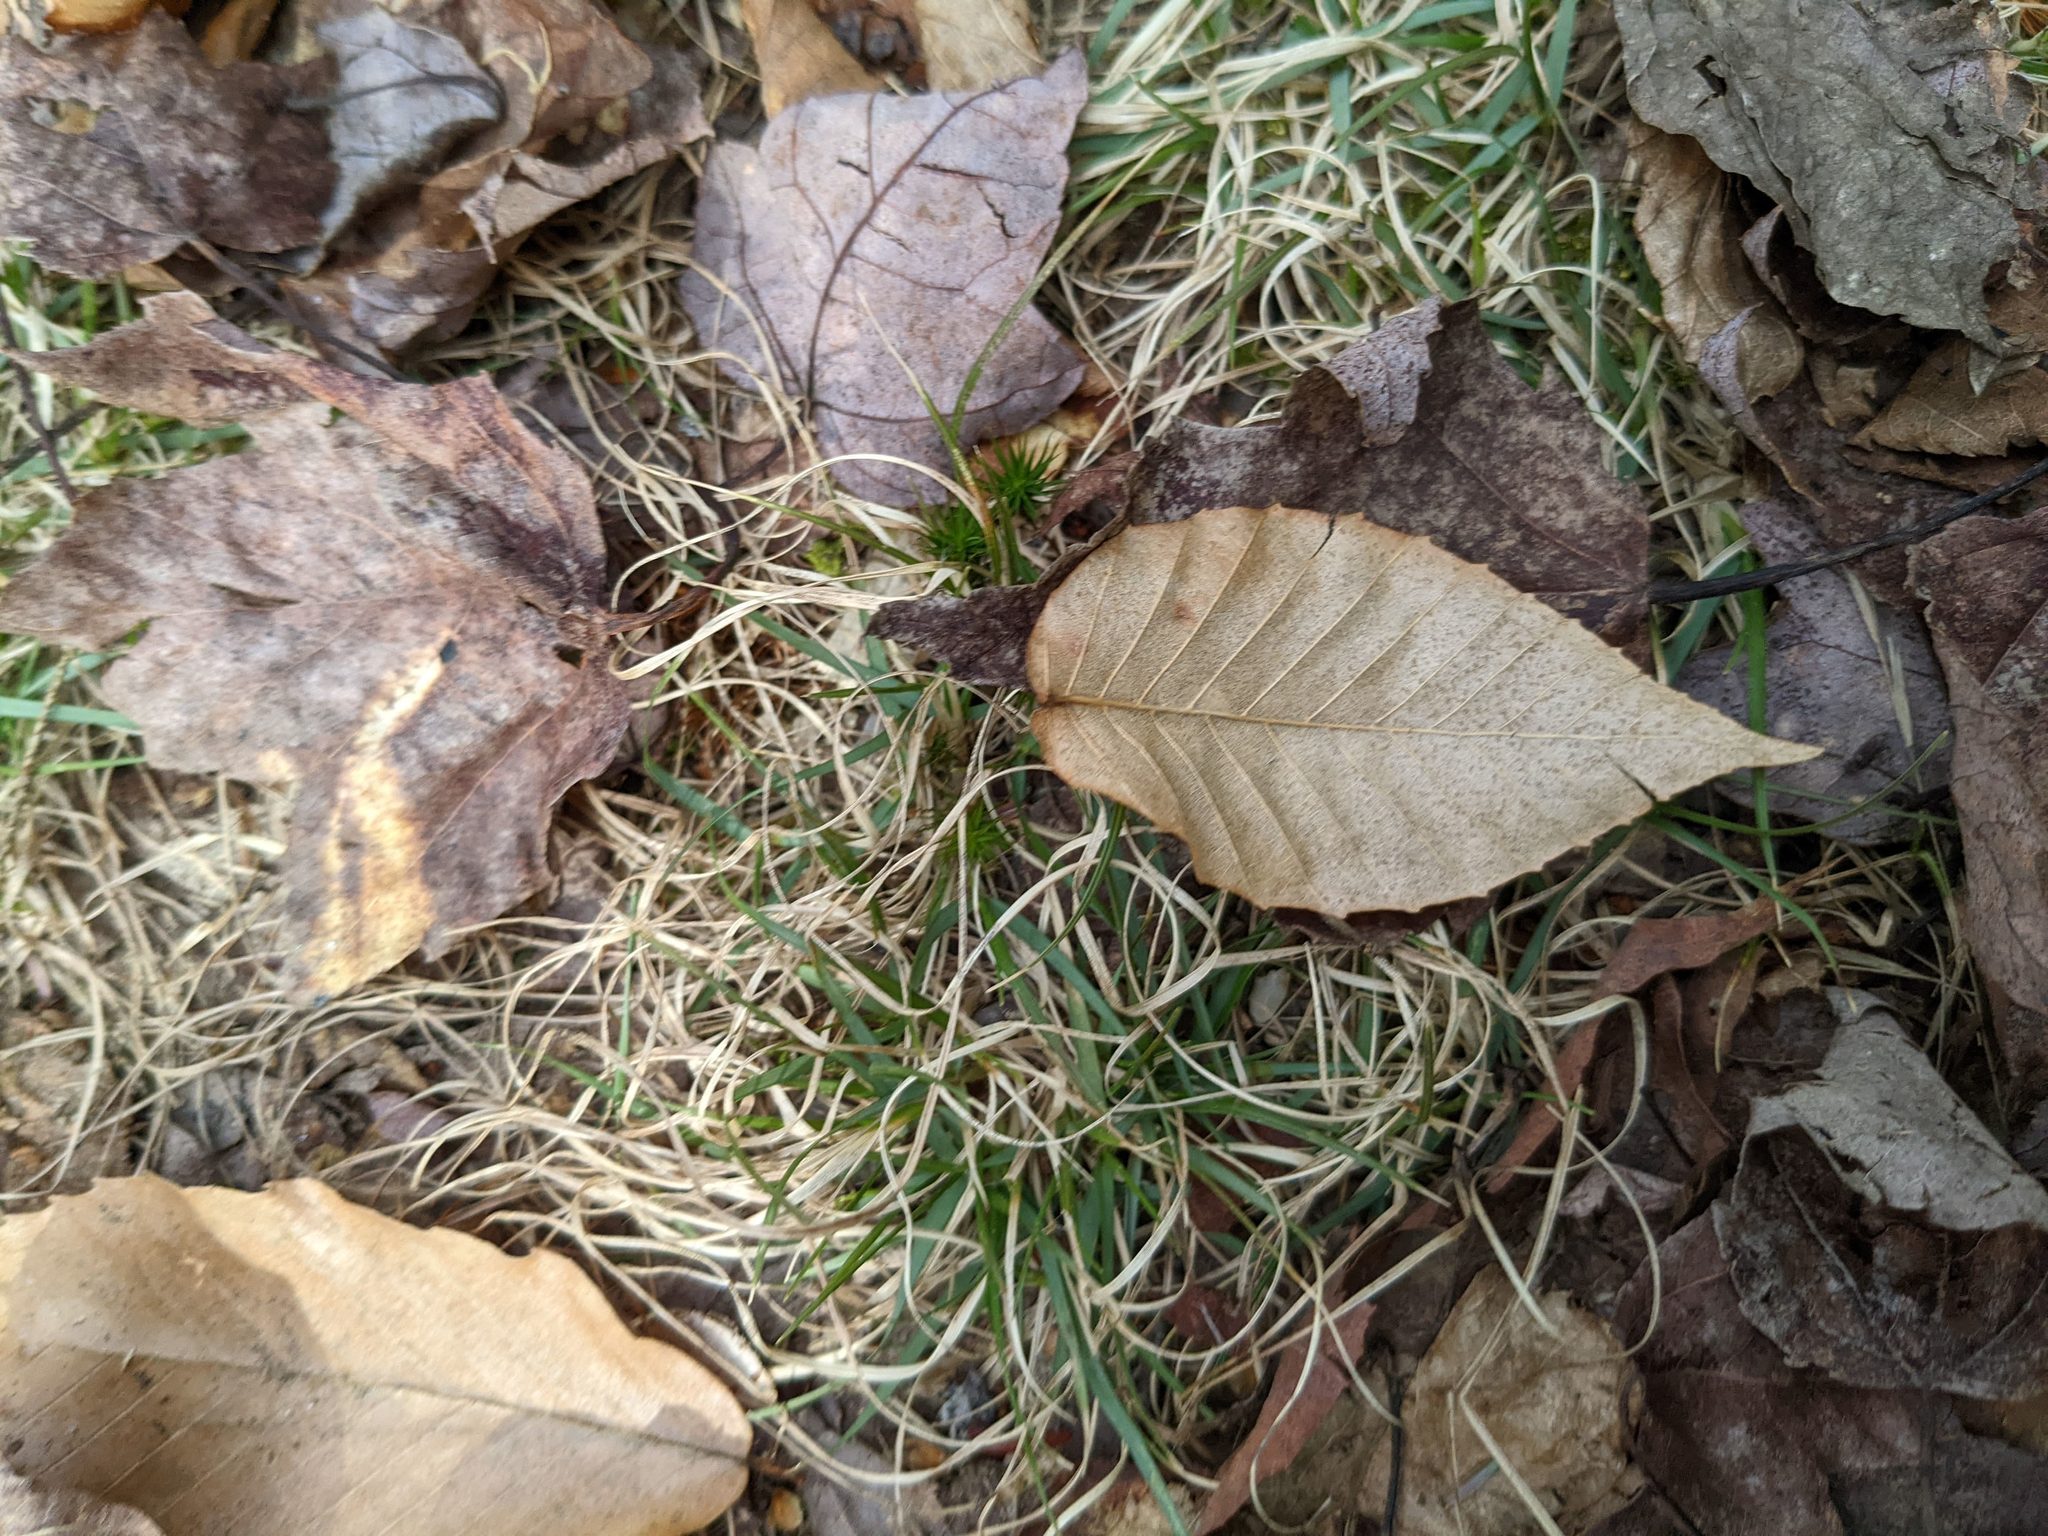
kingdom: Plantae
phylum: Tracheophyta
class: Magnoliopsida
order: Fagales
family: Fagaceae
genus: Fagus
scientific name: Fagus grandifolia
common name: American beech
